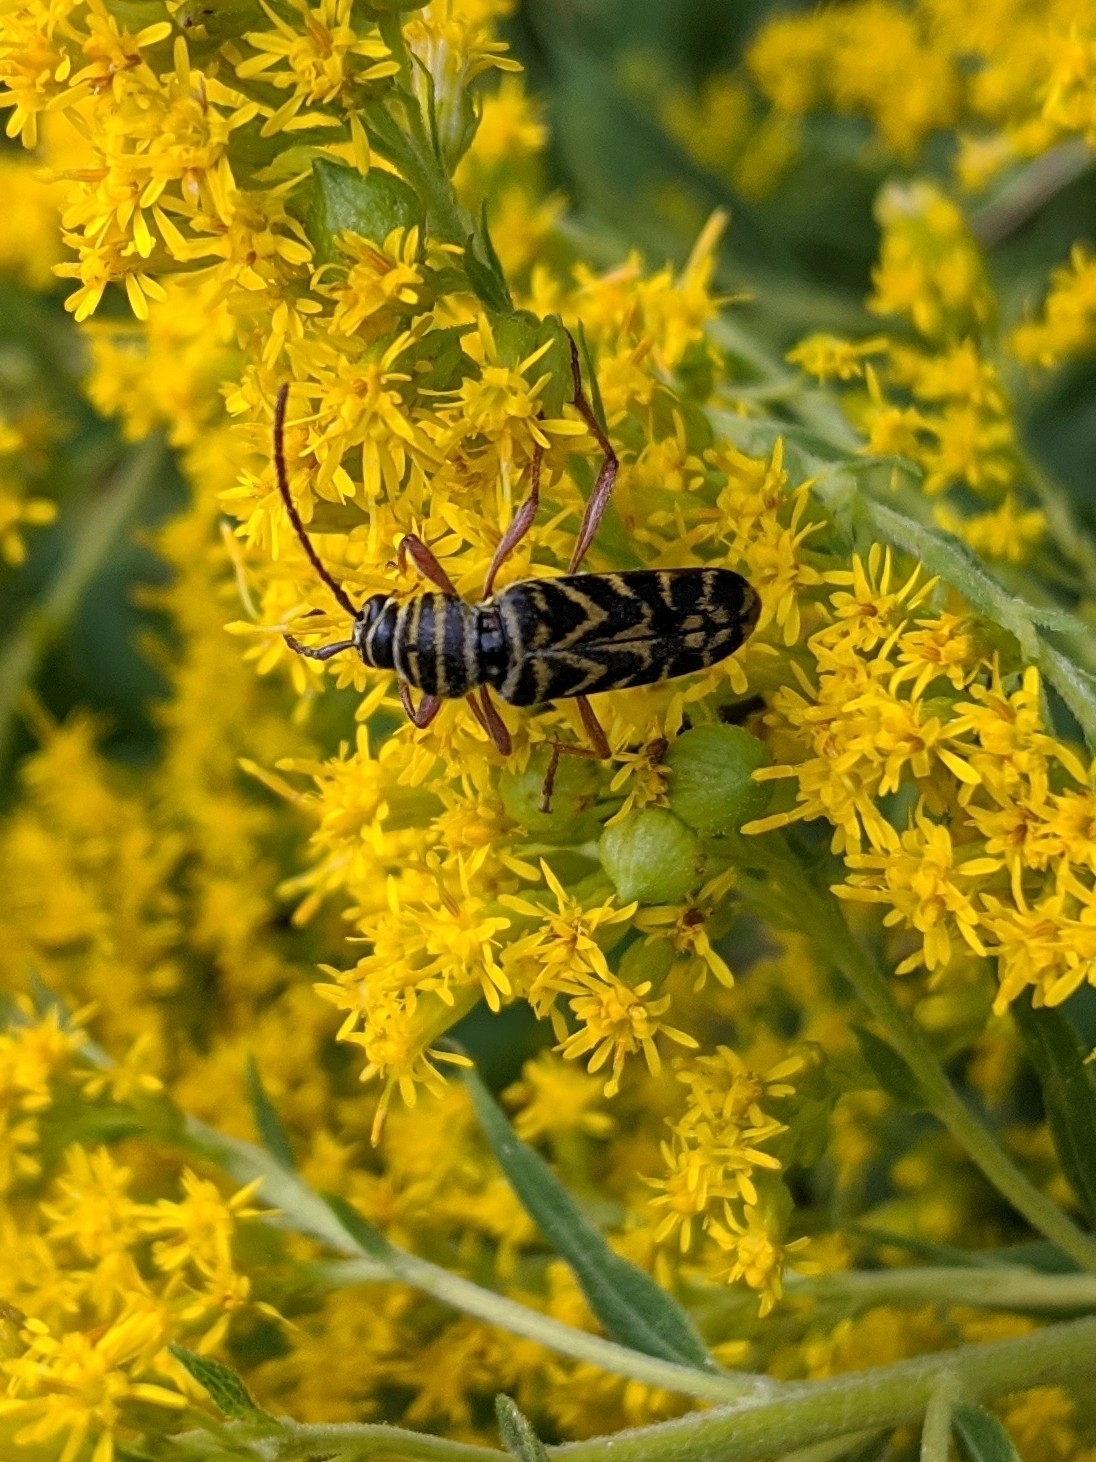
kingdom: Animalia
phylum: Arthropoda
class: Insecta
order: Coleoptera
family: Cerambycidae
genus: Megacyllene
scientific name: Megacyllene robiniae
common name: Locust borer
